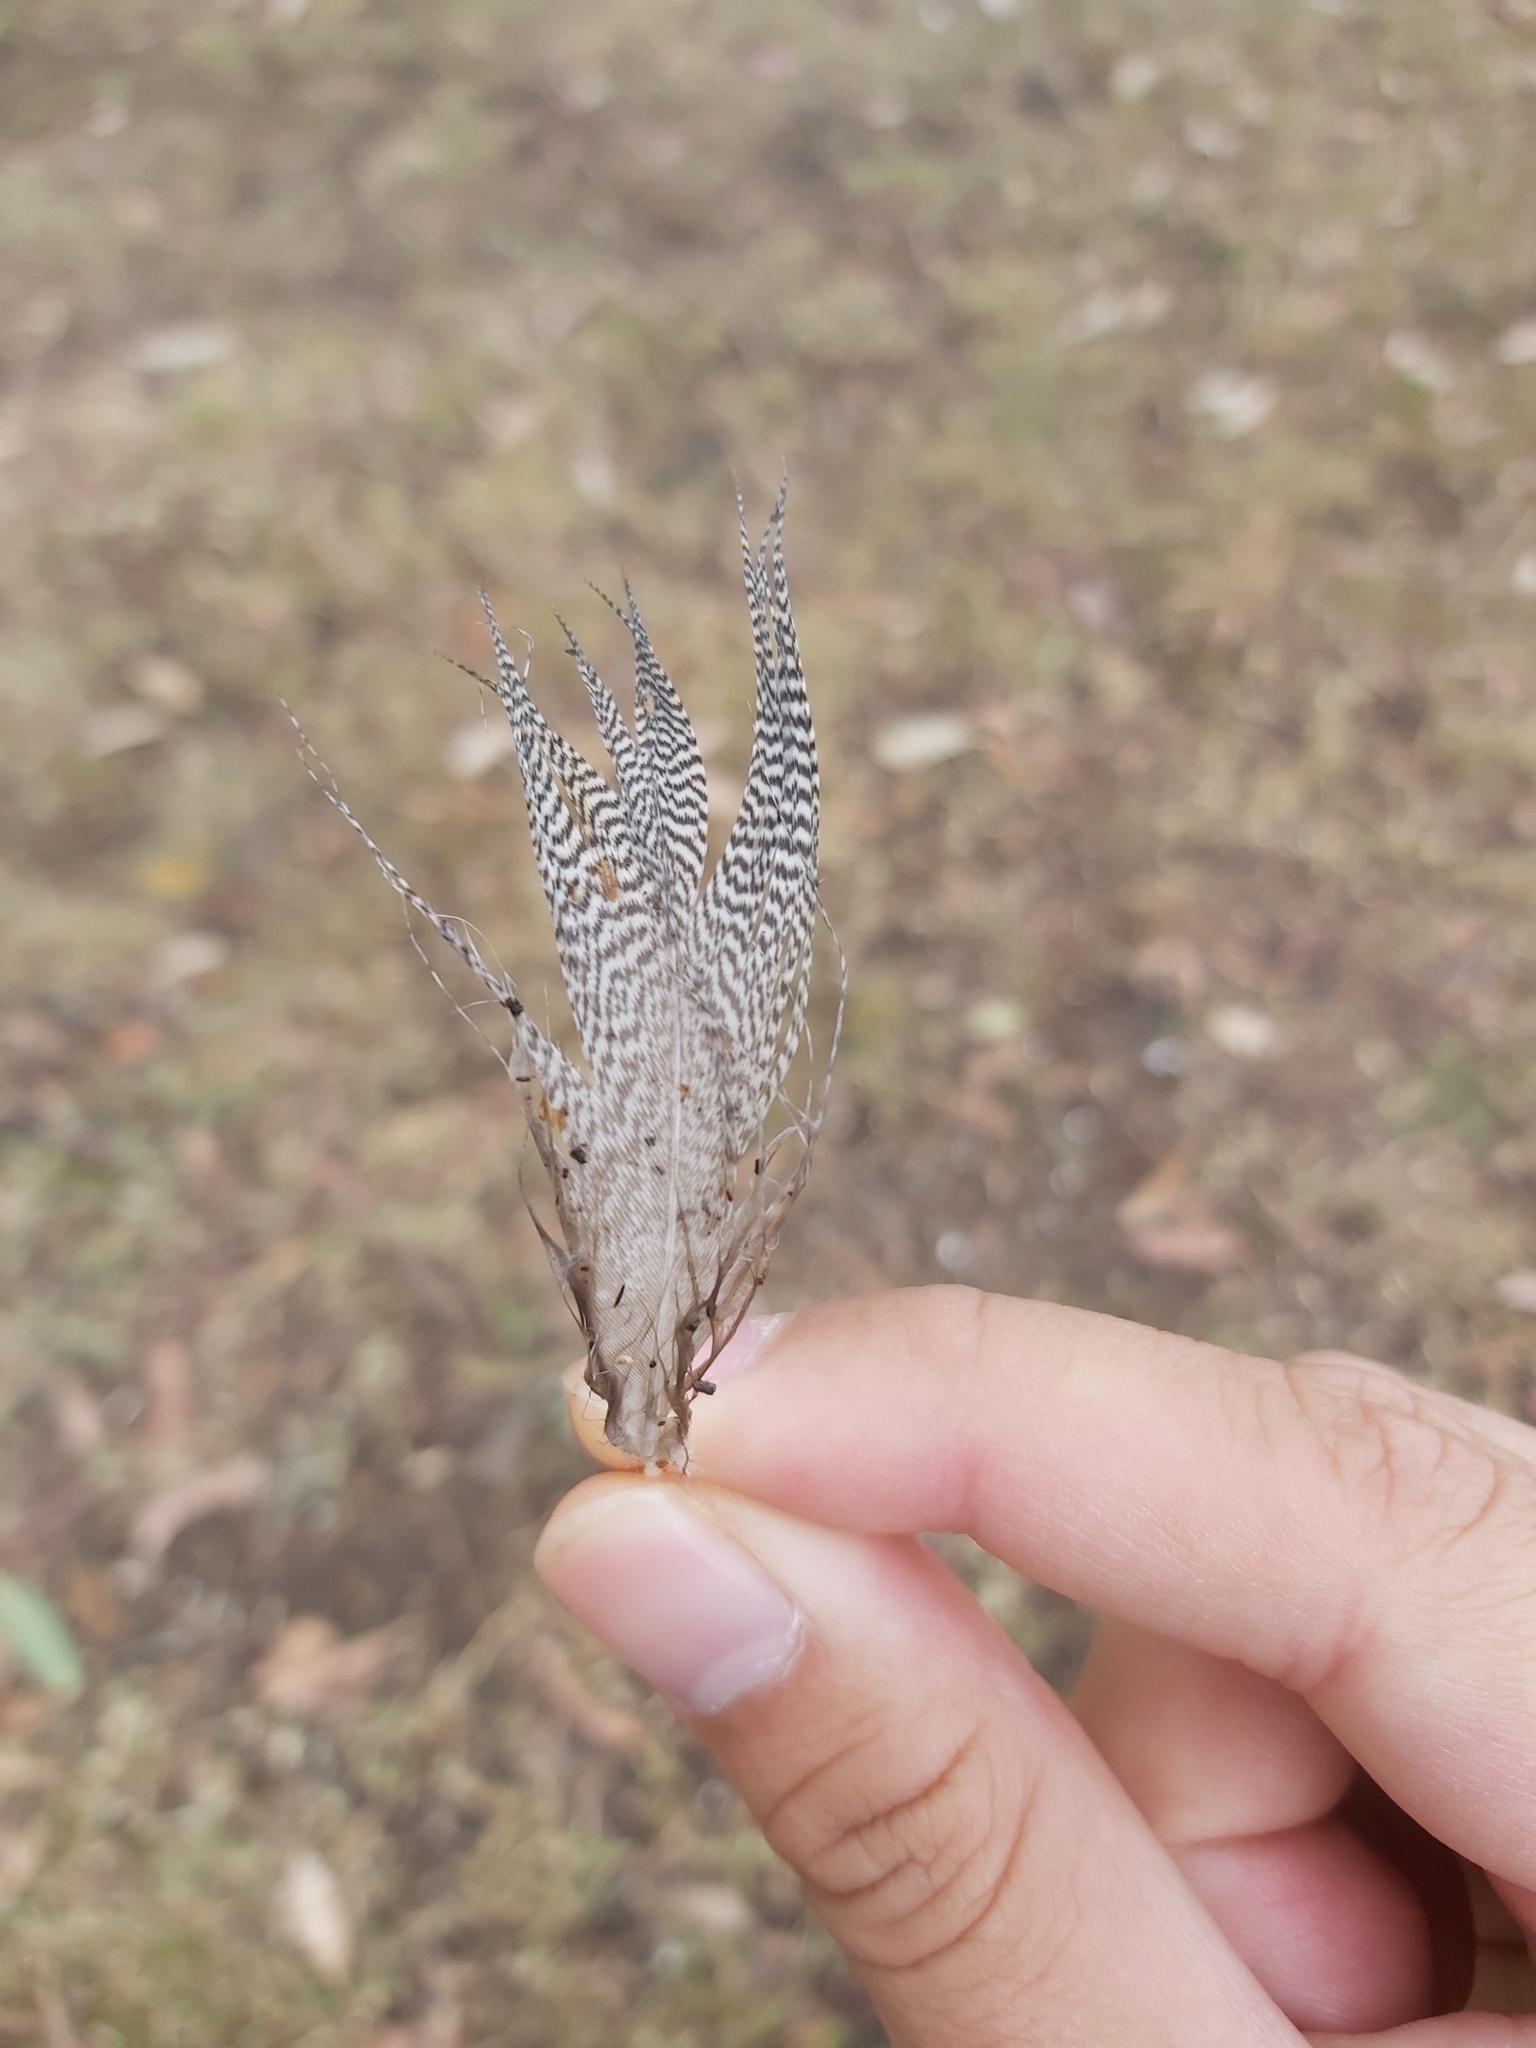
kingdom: Animalia
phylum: Chordata
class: Aves
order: Anseriformes
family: Anatidae
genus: Chenonetta
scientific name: Chenonetta jubata
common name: Maned duck
